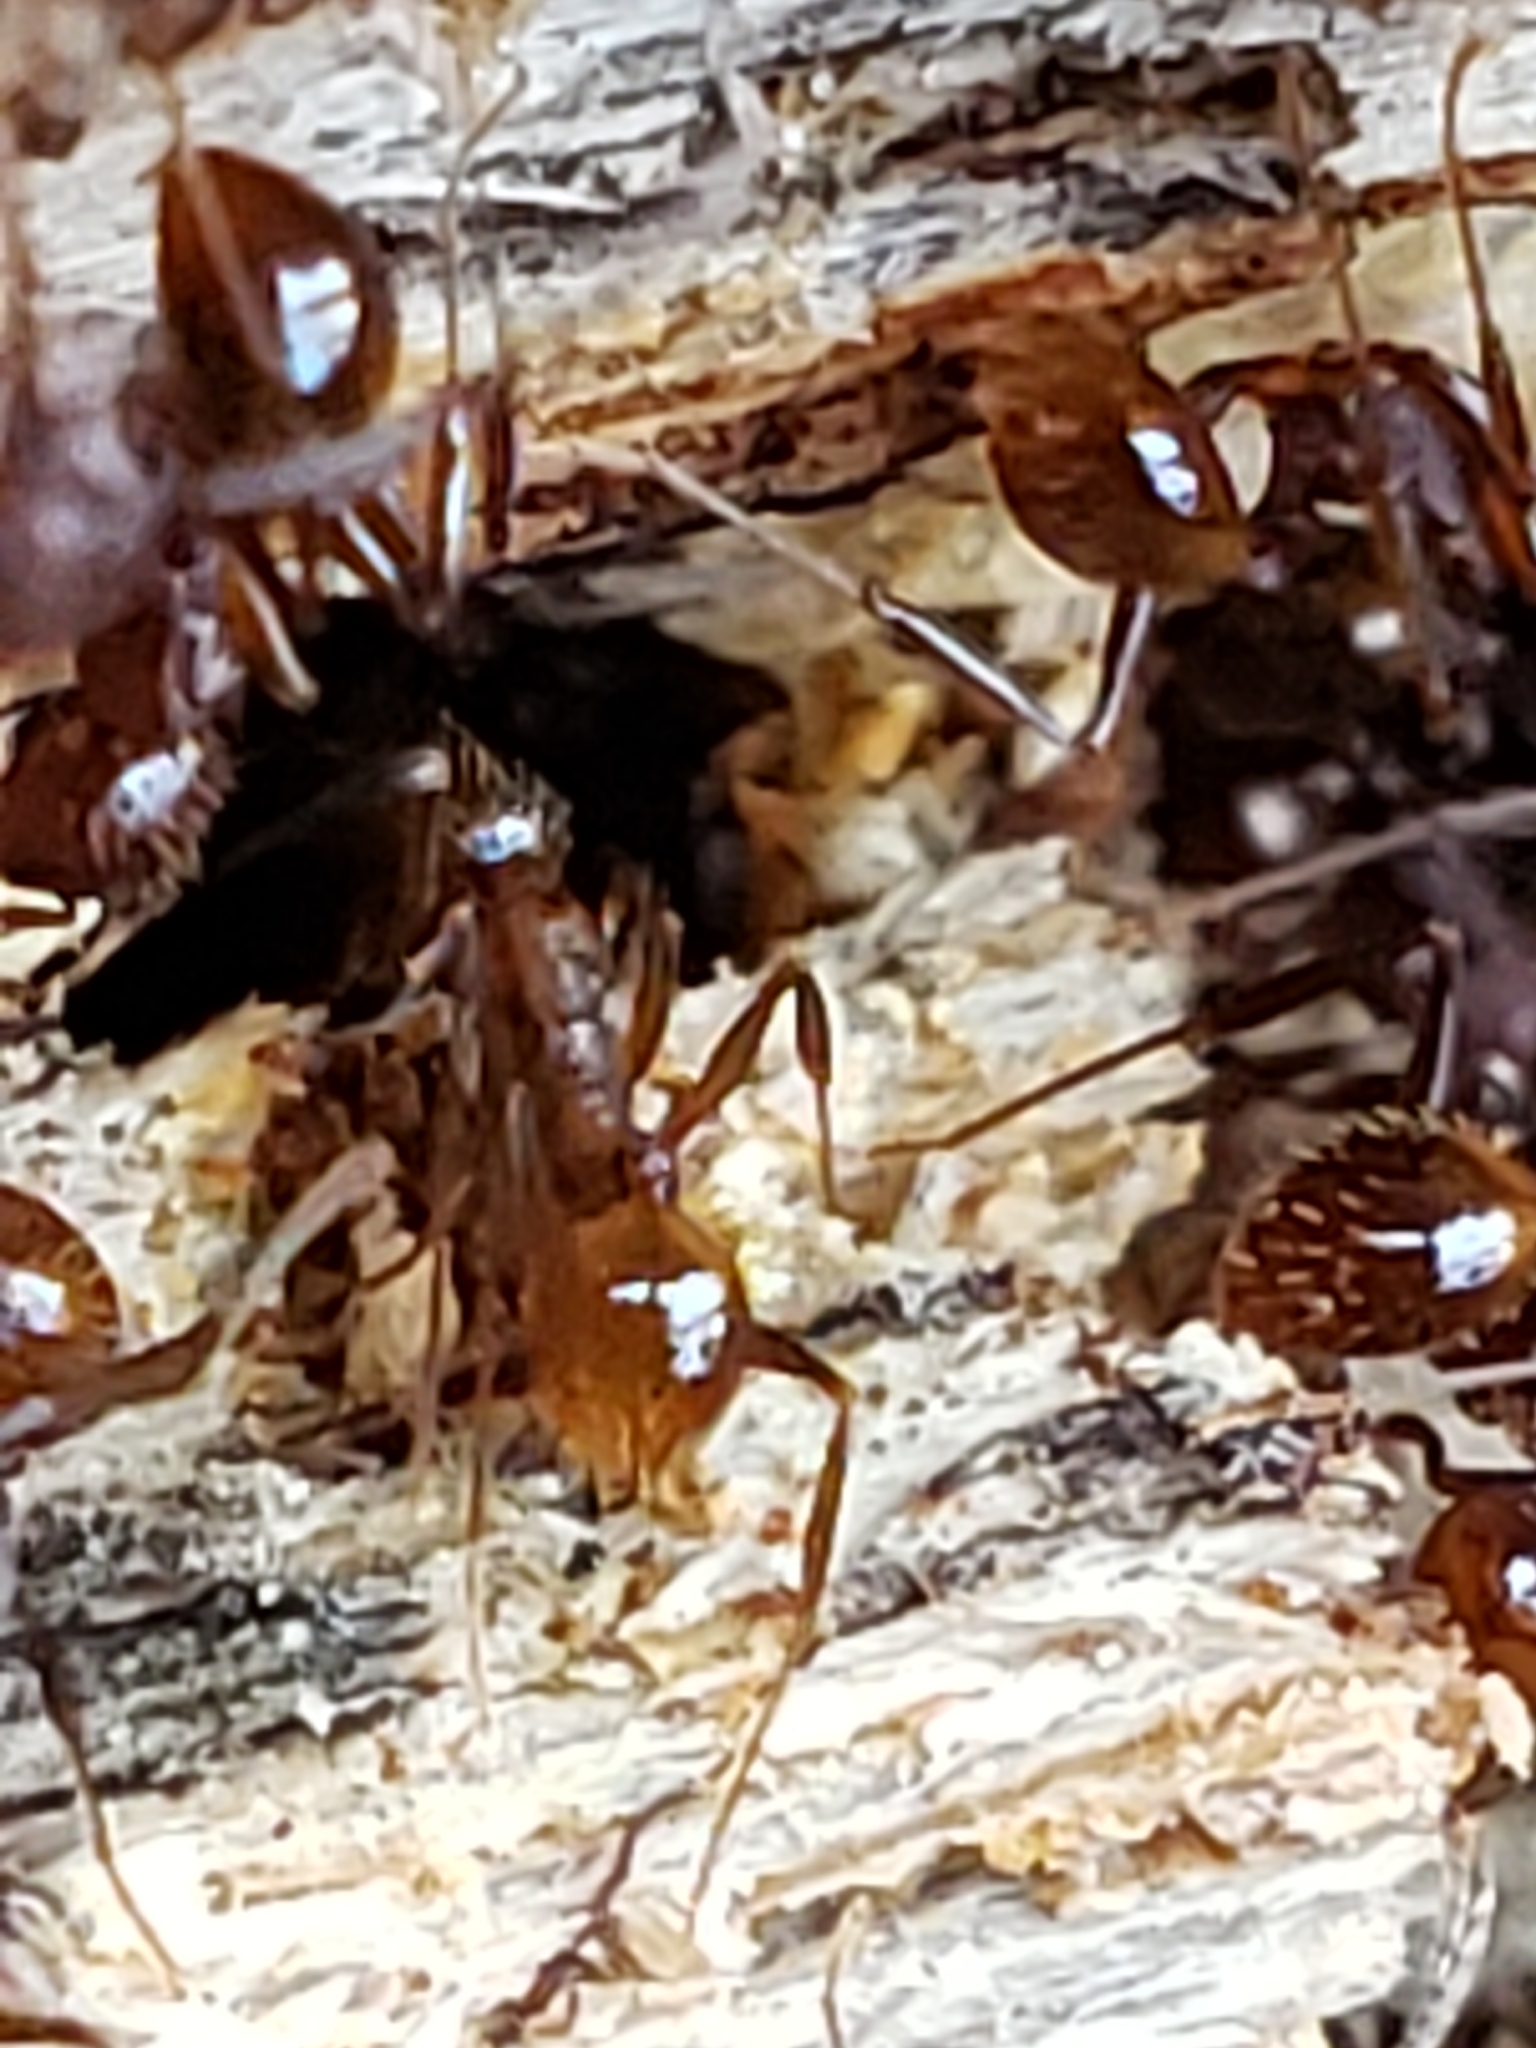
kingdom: Animalia
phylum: Arthropoda
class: Insecta
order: Hymenoptera
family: Formicidae
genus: Aphaenogaster
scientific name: Aphaenogaster fulva
